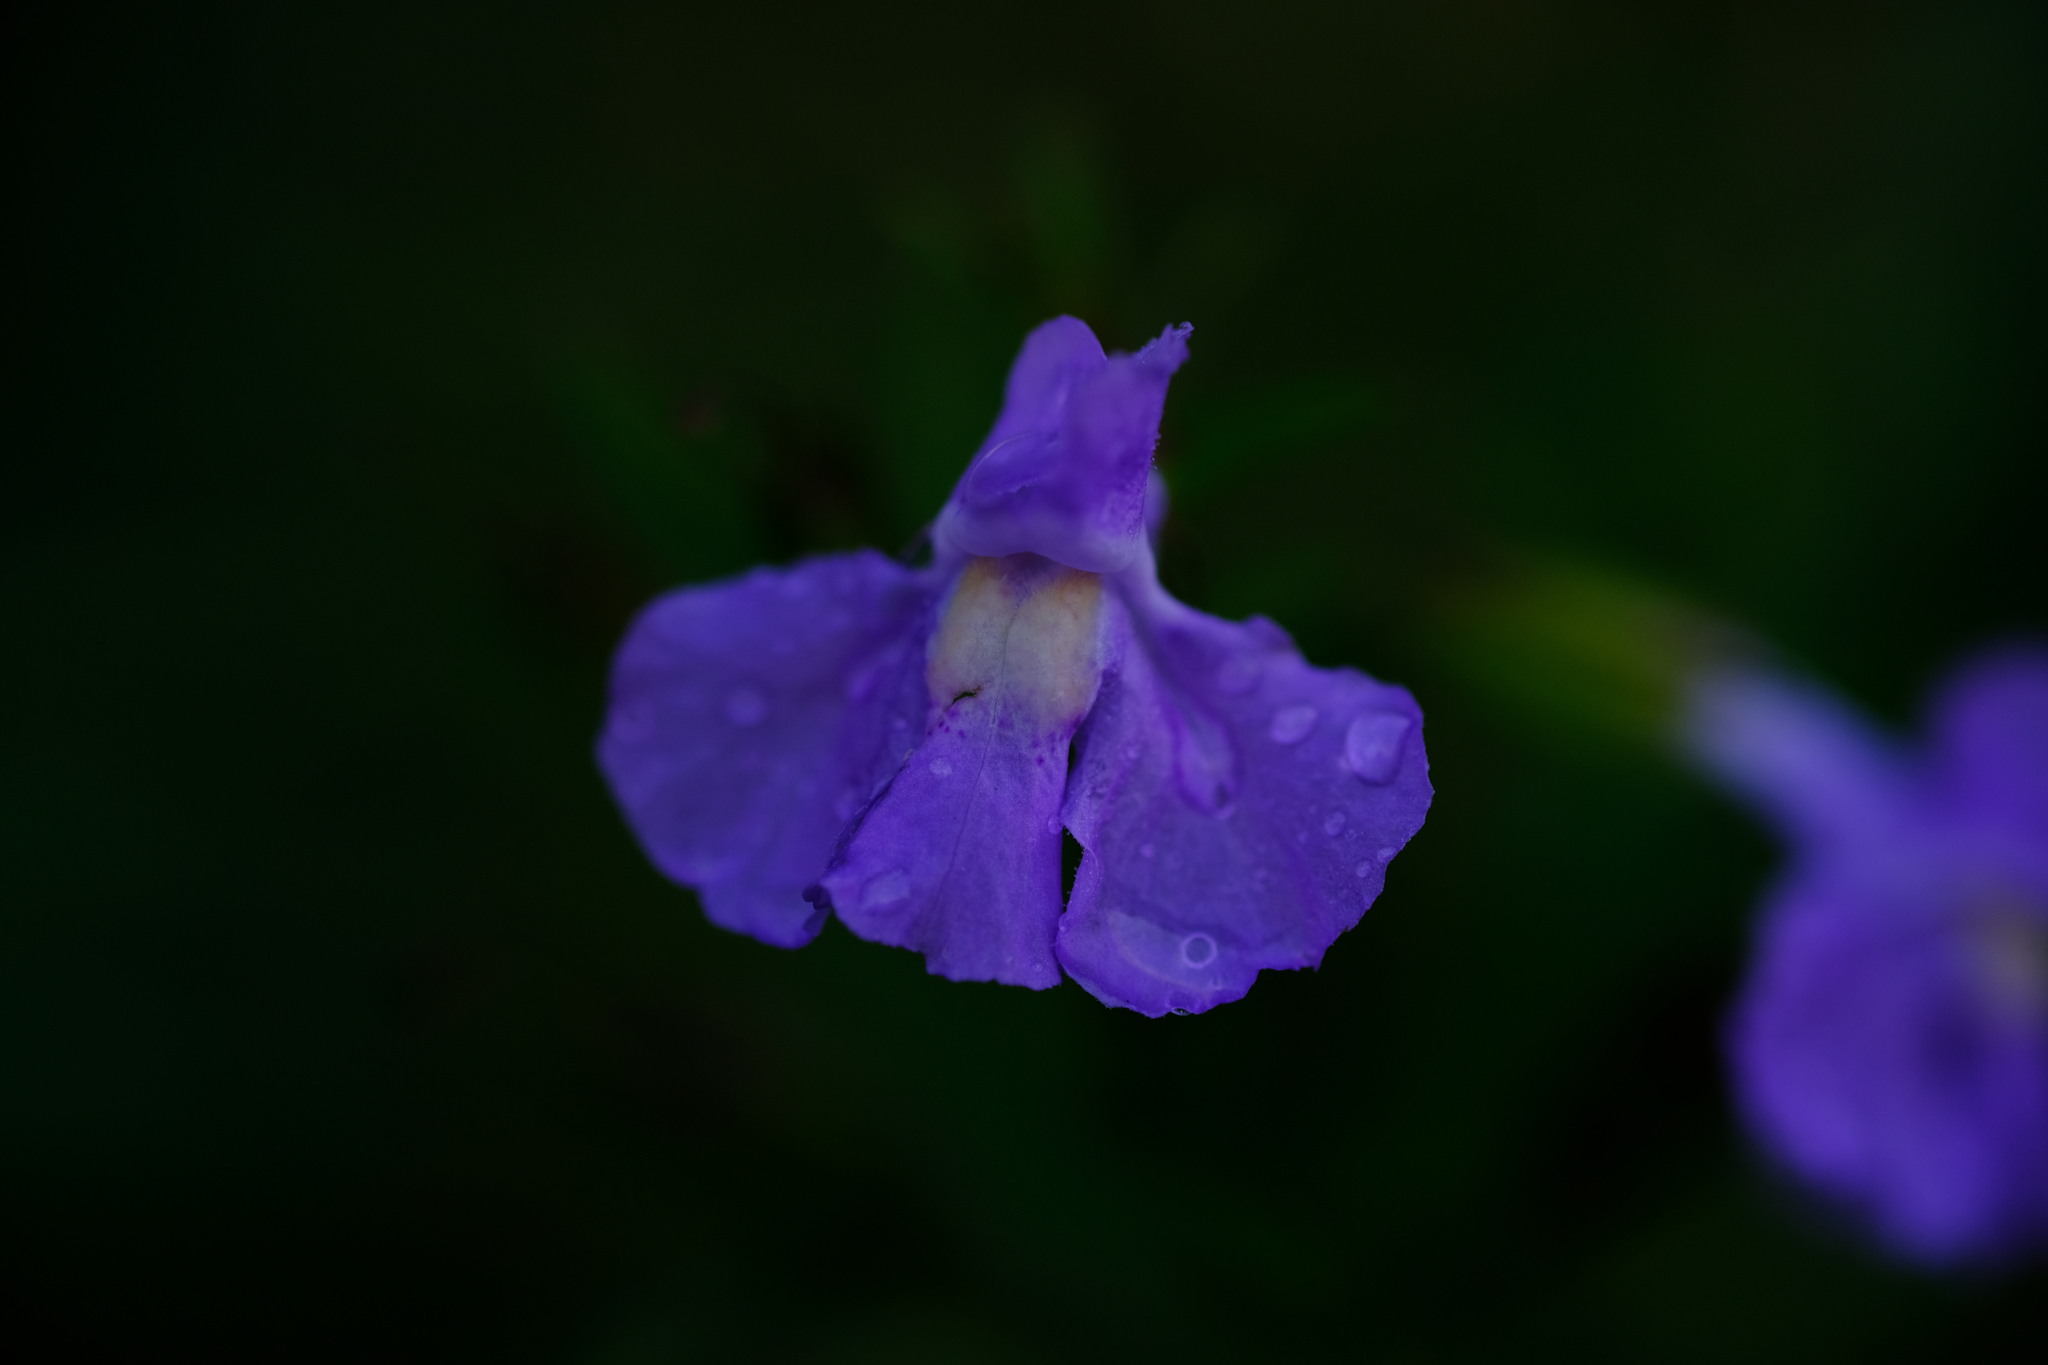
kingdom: Plantae
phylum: Tracheophyta
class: Magnoliopsida
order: Lamiales
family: Phrymaceae
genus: Mimulus
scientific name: Mimulus ringens
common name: Allegheny monkeyflower
